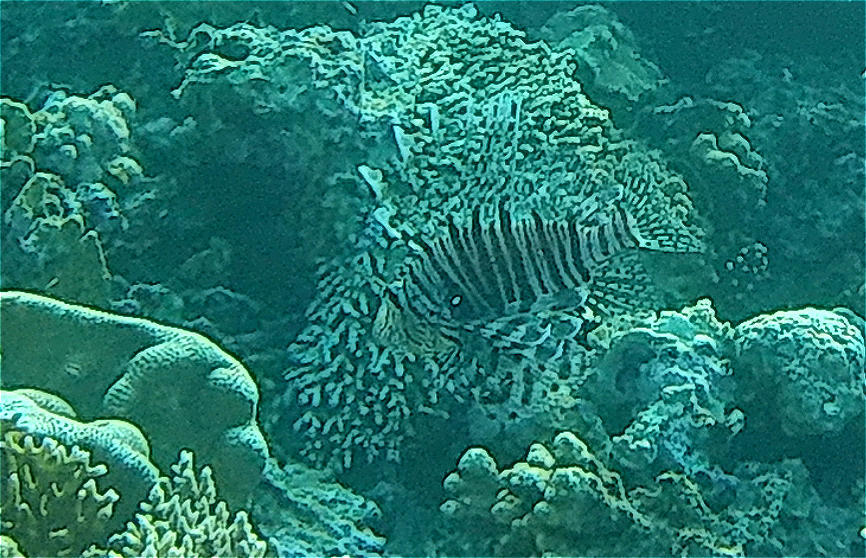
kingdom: Animalia
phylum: Chordata
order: Scorpaeniformes
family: Scorpaenidae
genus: Pterois
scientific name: Pterois miles
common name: Devil firefish
